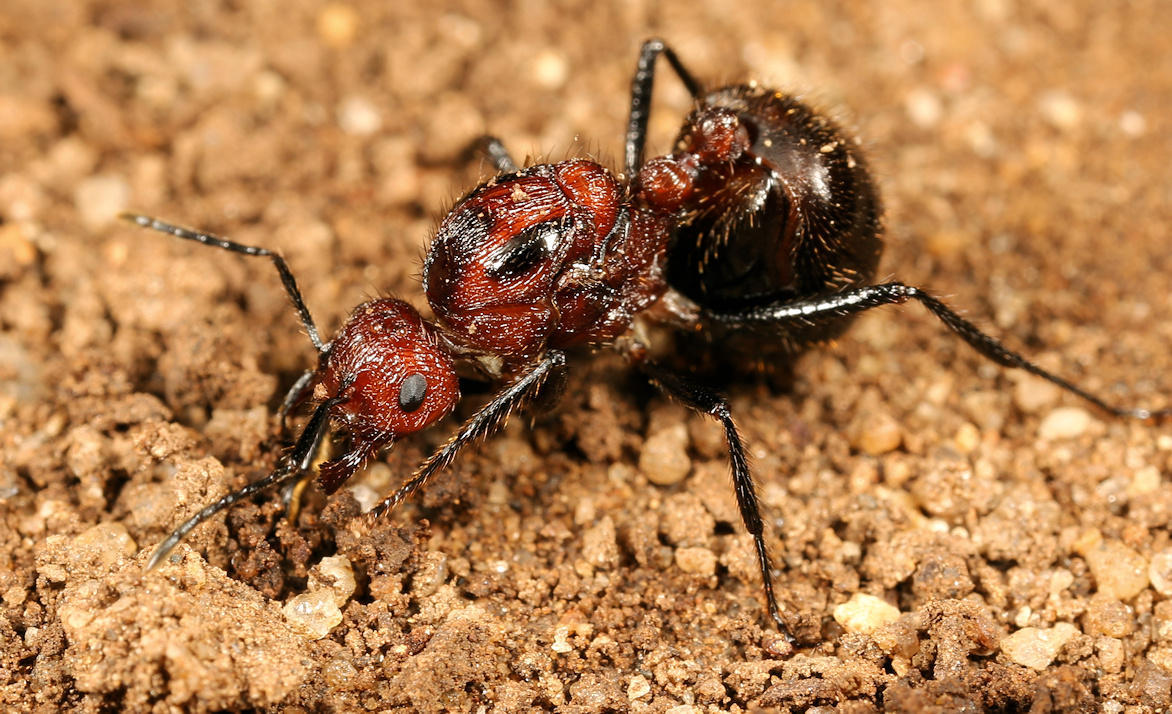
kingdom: Animalia
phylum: Arthropoda
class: Insecta
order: Hymenoptera
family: Formicidae
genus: Myrmicaria
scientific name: Myrmicaria natalensis
